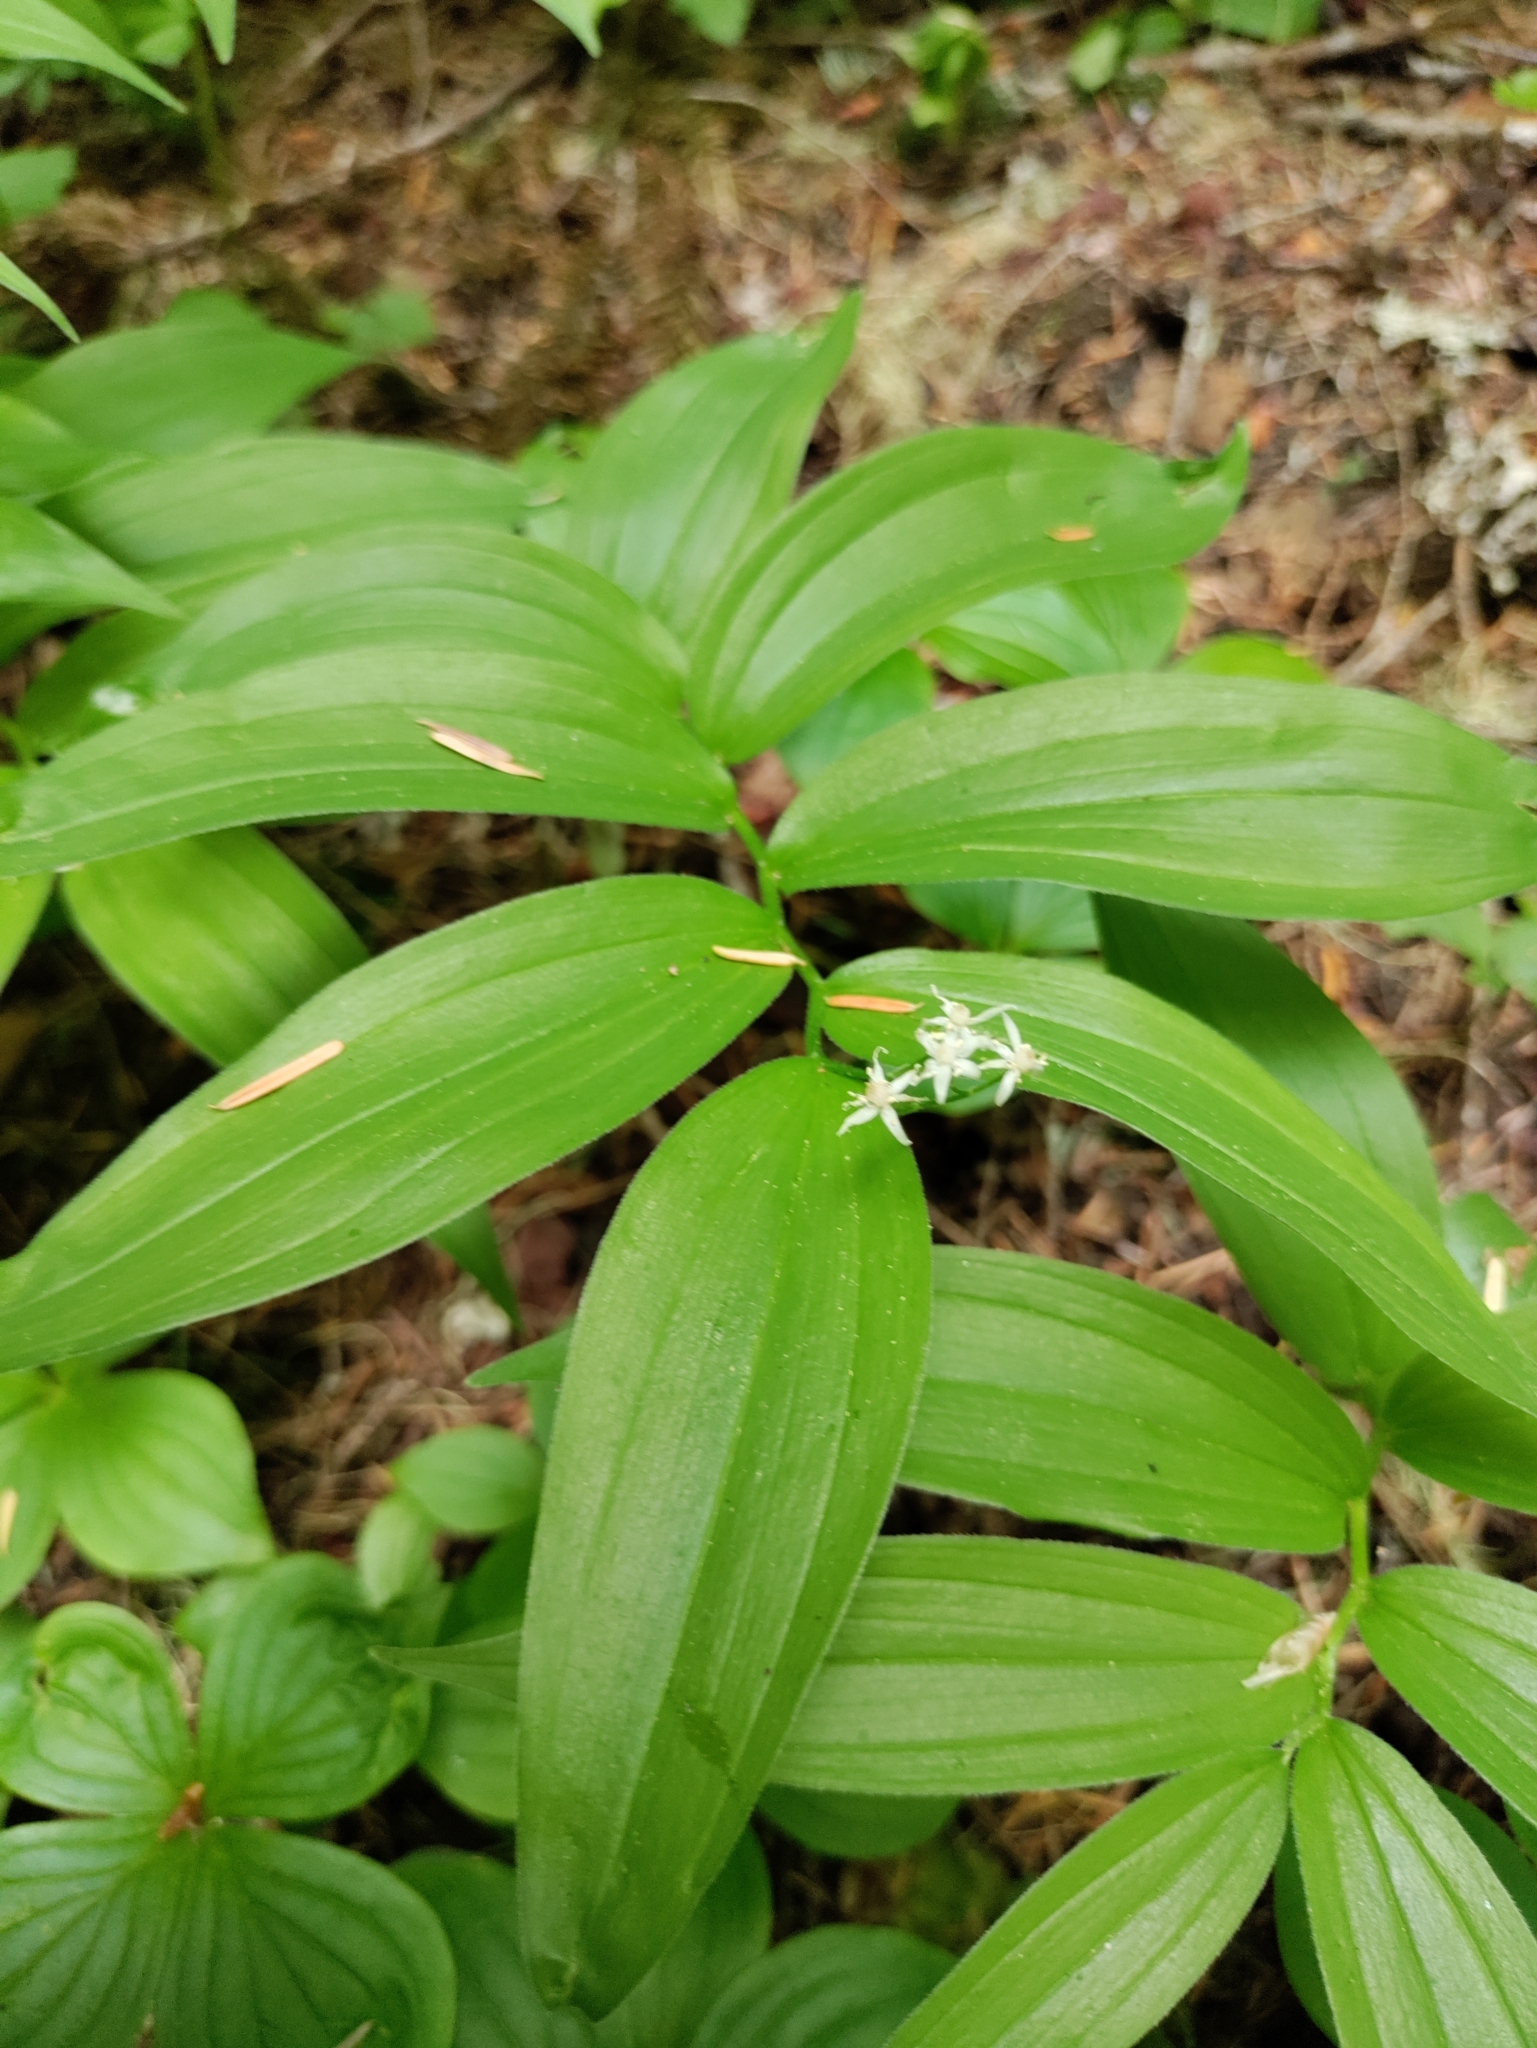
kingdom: Plantae
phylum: Tracheophyta
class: Liliopsida
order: Asparagales
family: Asparagaceae
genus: Maianthemum
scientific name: Maianthemum stellatum
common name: Little false solomon's seal
